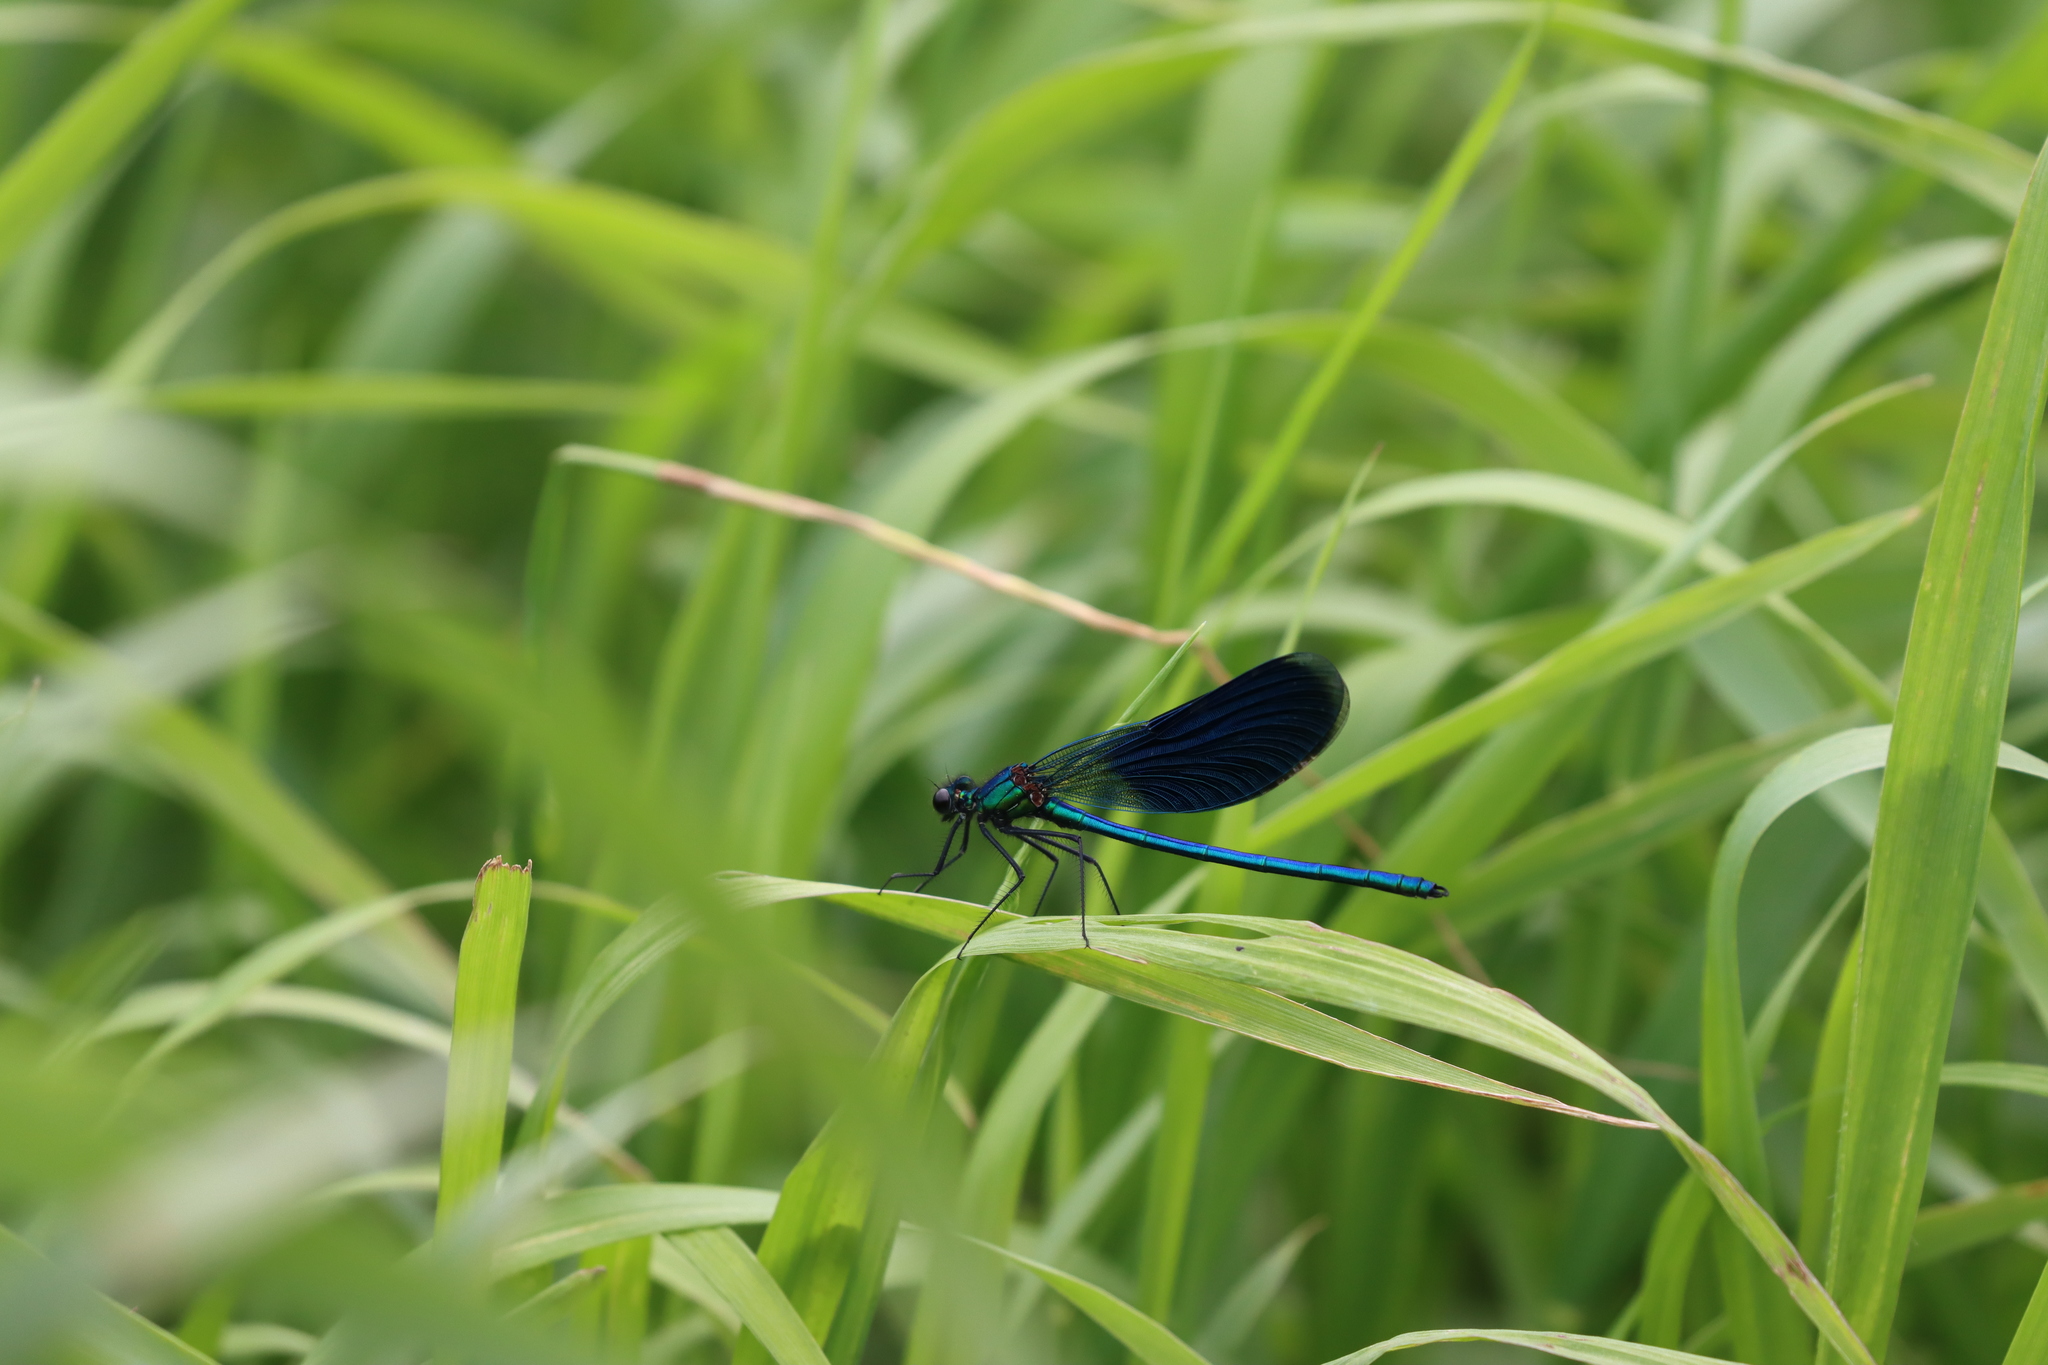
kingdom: Animalia
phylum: Arthropoda
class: Insecta
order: Odonata
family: Calopterygidae
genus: Calopteryx
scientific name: Calopteryx splendens
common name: Banded demoiselle
